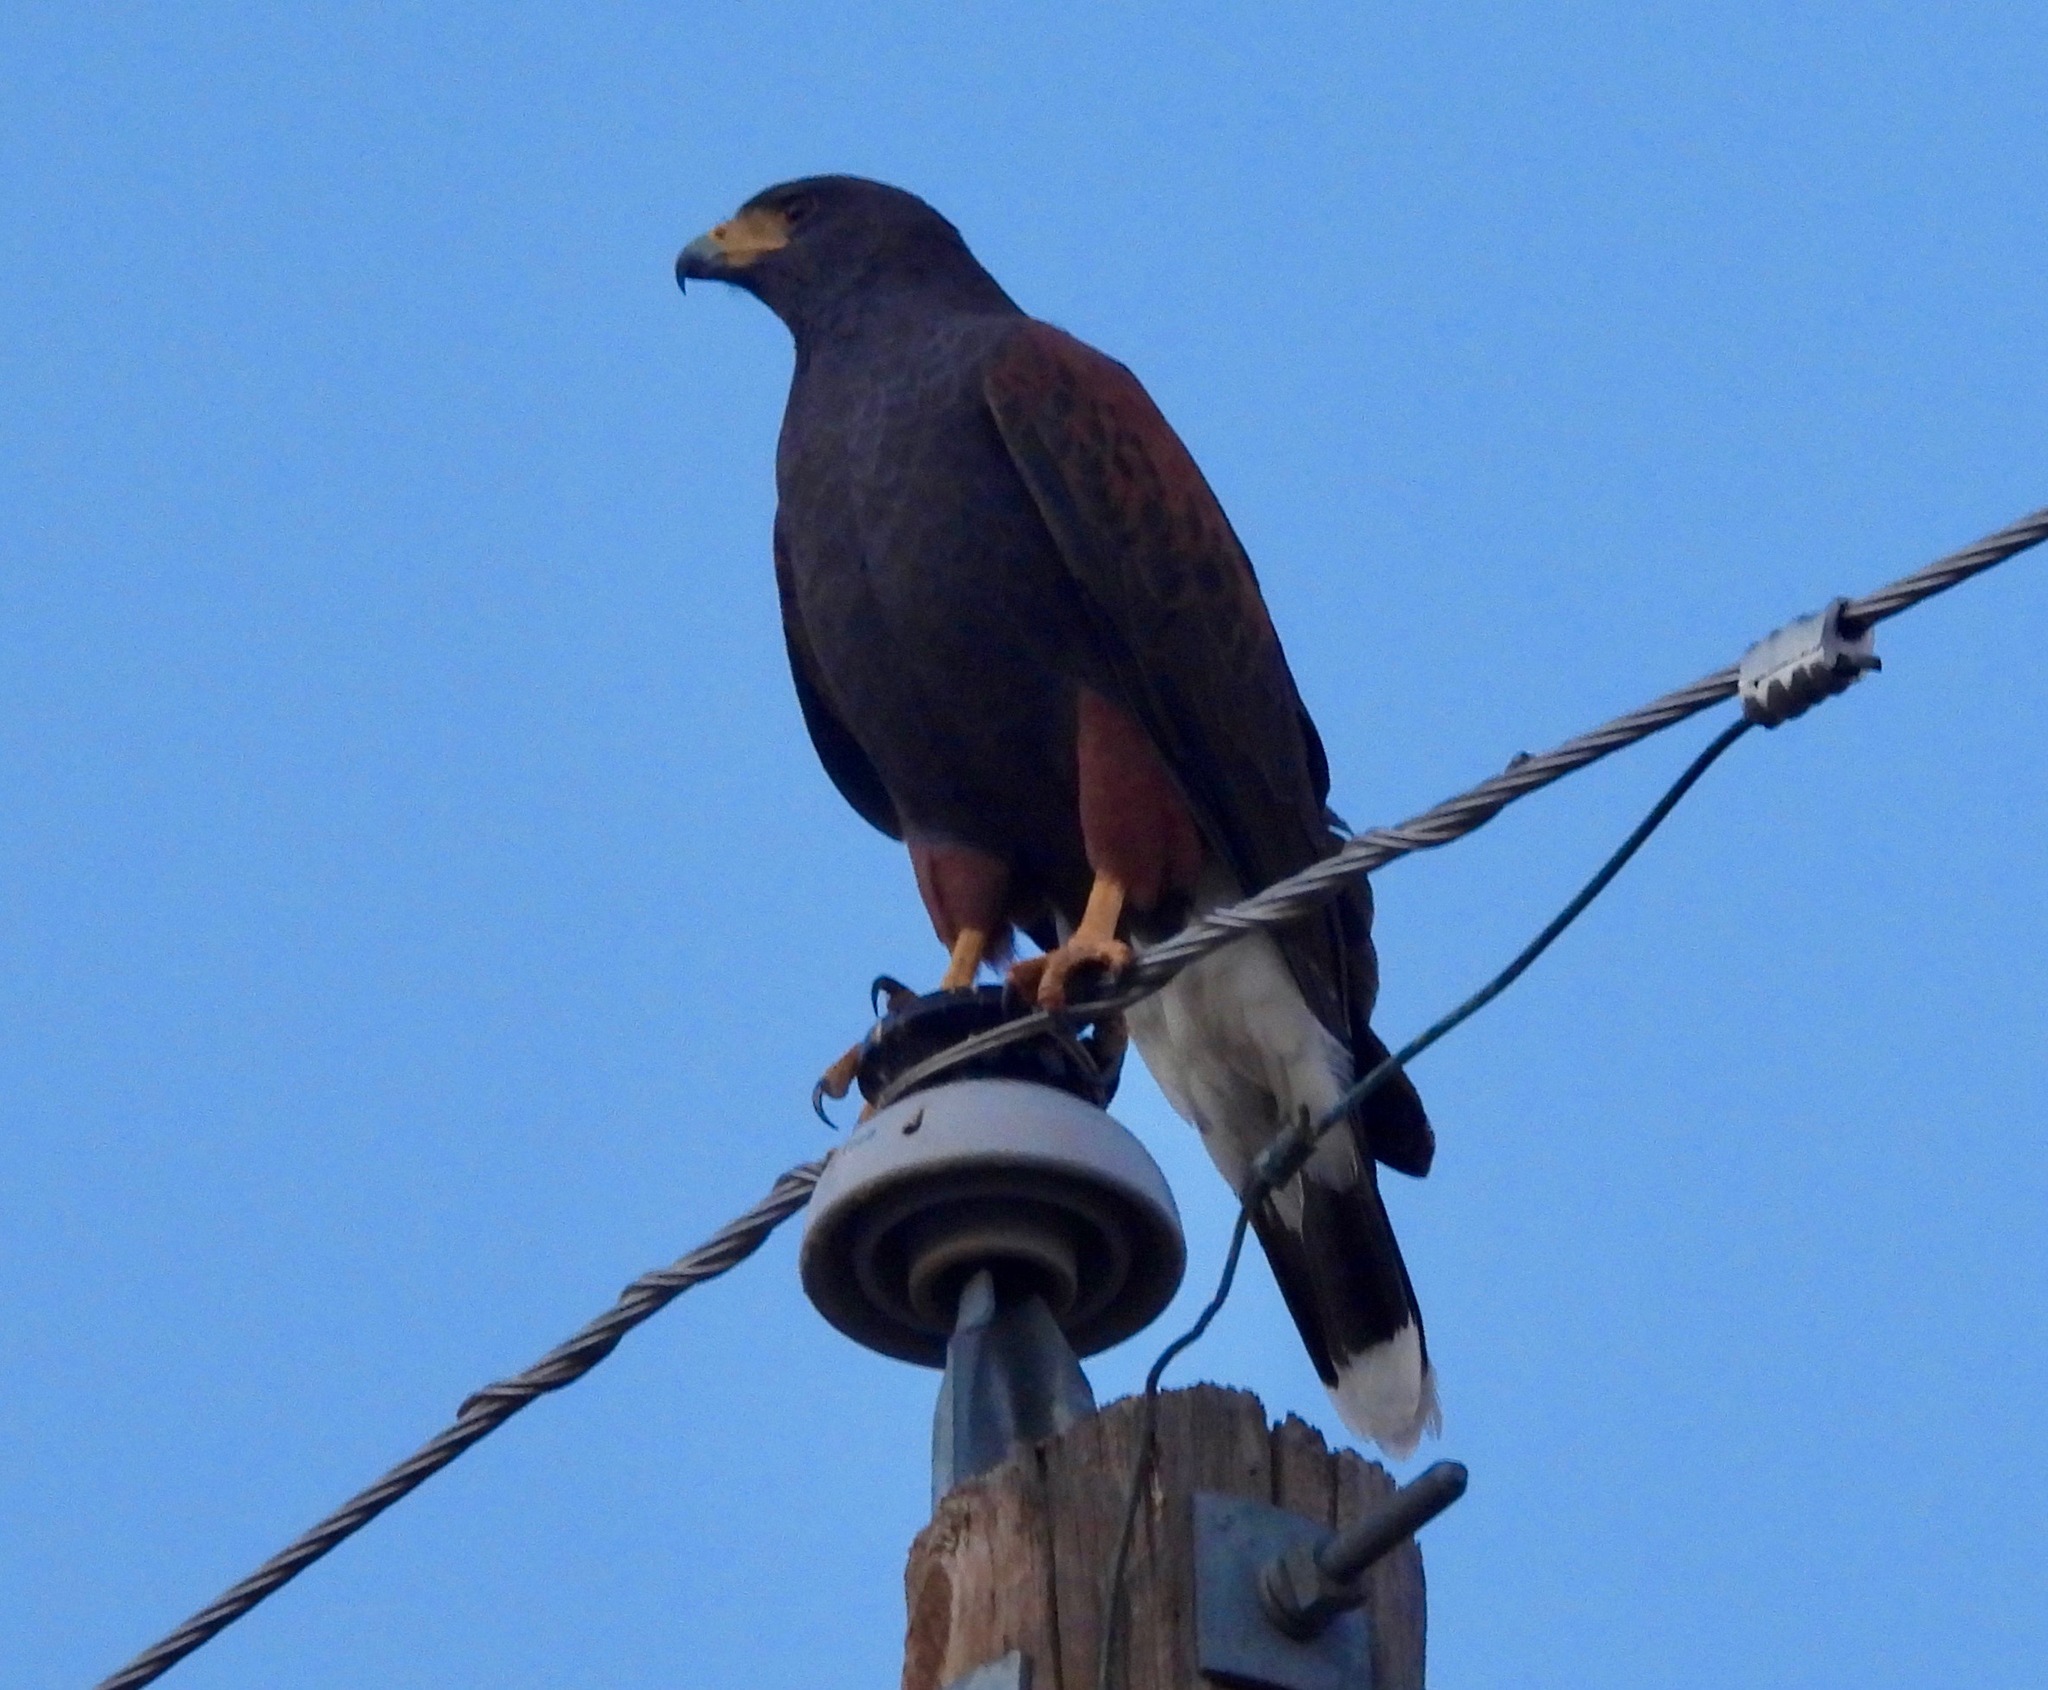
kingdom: Animalia
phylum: Chordata
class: Aves
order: Accipitriformes
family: Accipitridae
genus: Parabuteo
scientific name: Parabuteo unicinctus
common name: Harris's hawk
